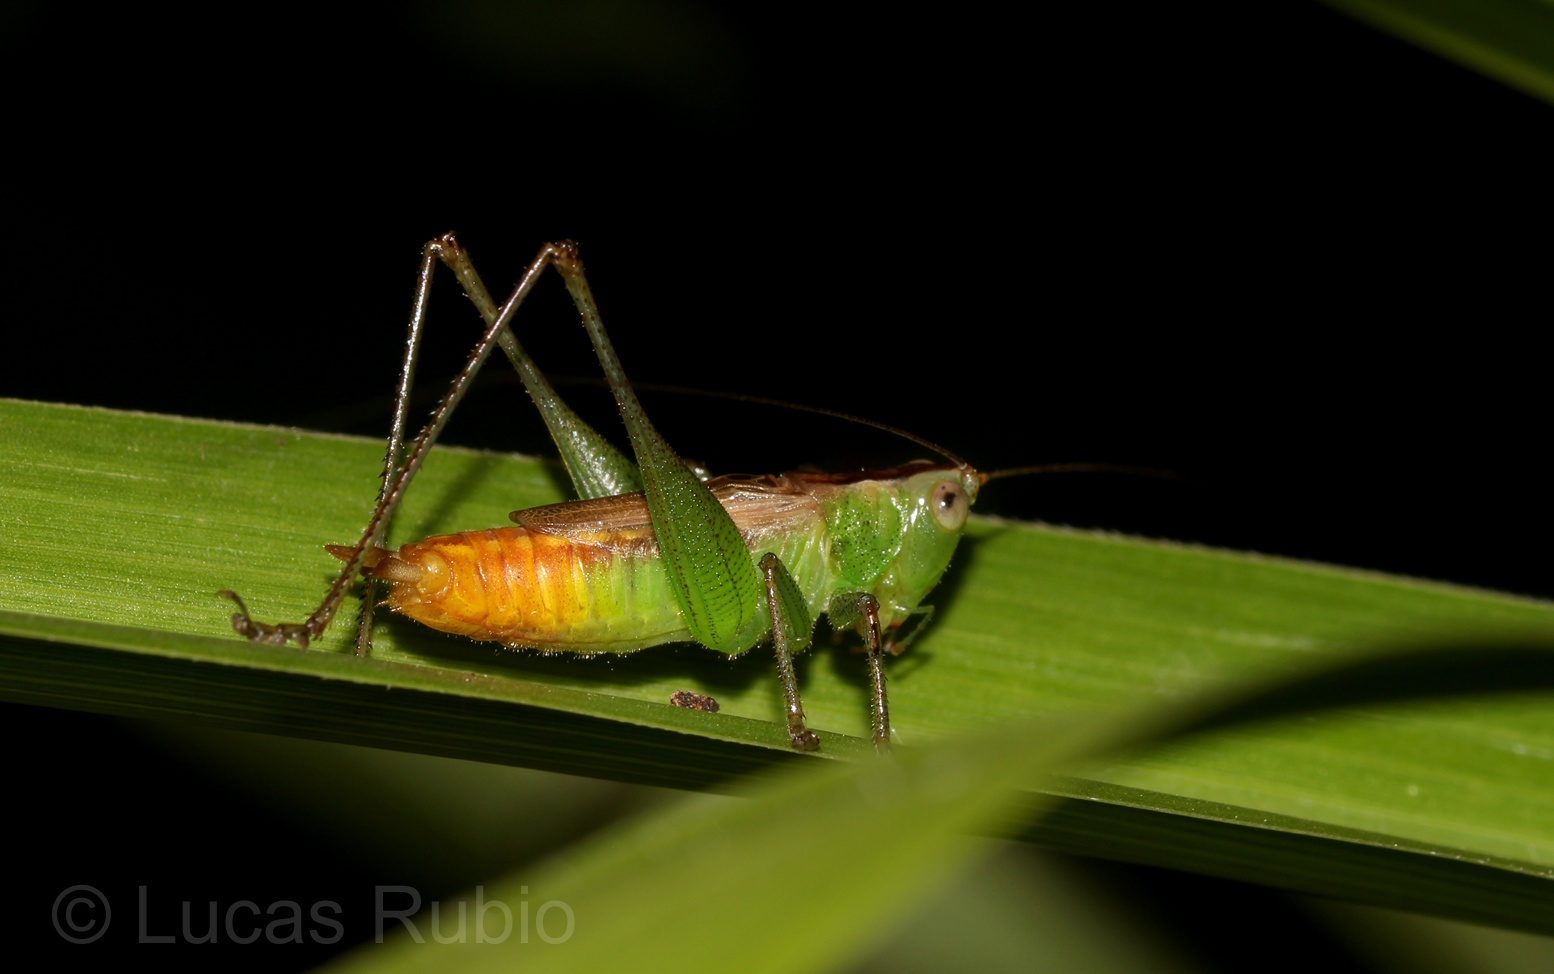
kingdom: Animalia
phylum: Arthropoda
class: Insecta
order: Orthoptera
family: Tettigoniidae
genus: Conocephalus
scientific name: Conocephalus saltator
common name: Katydid
